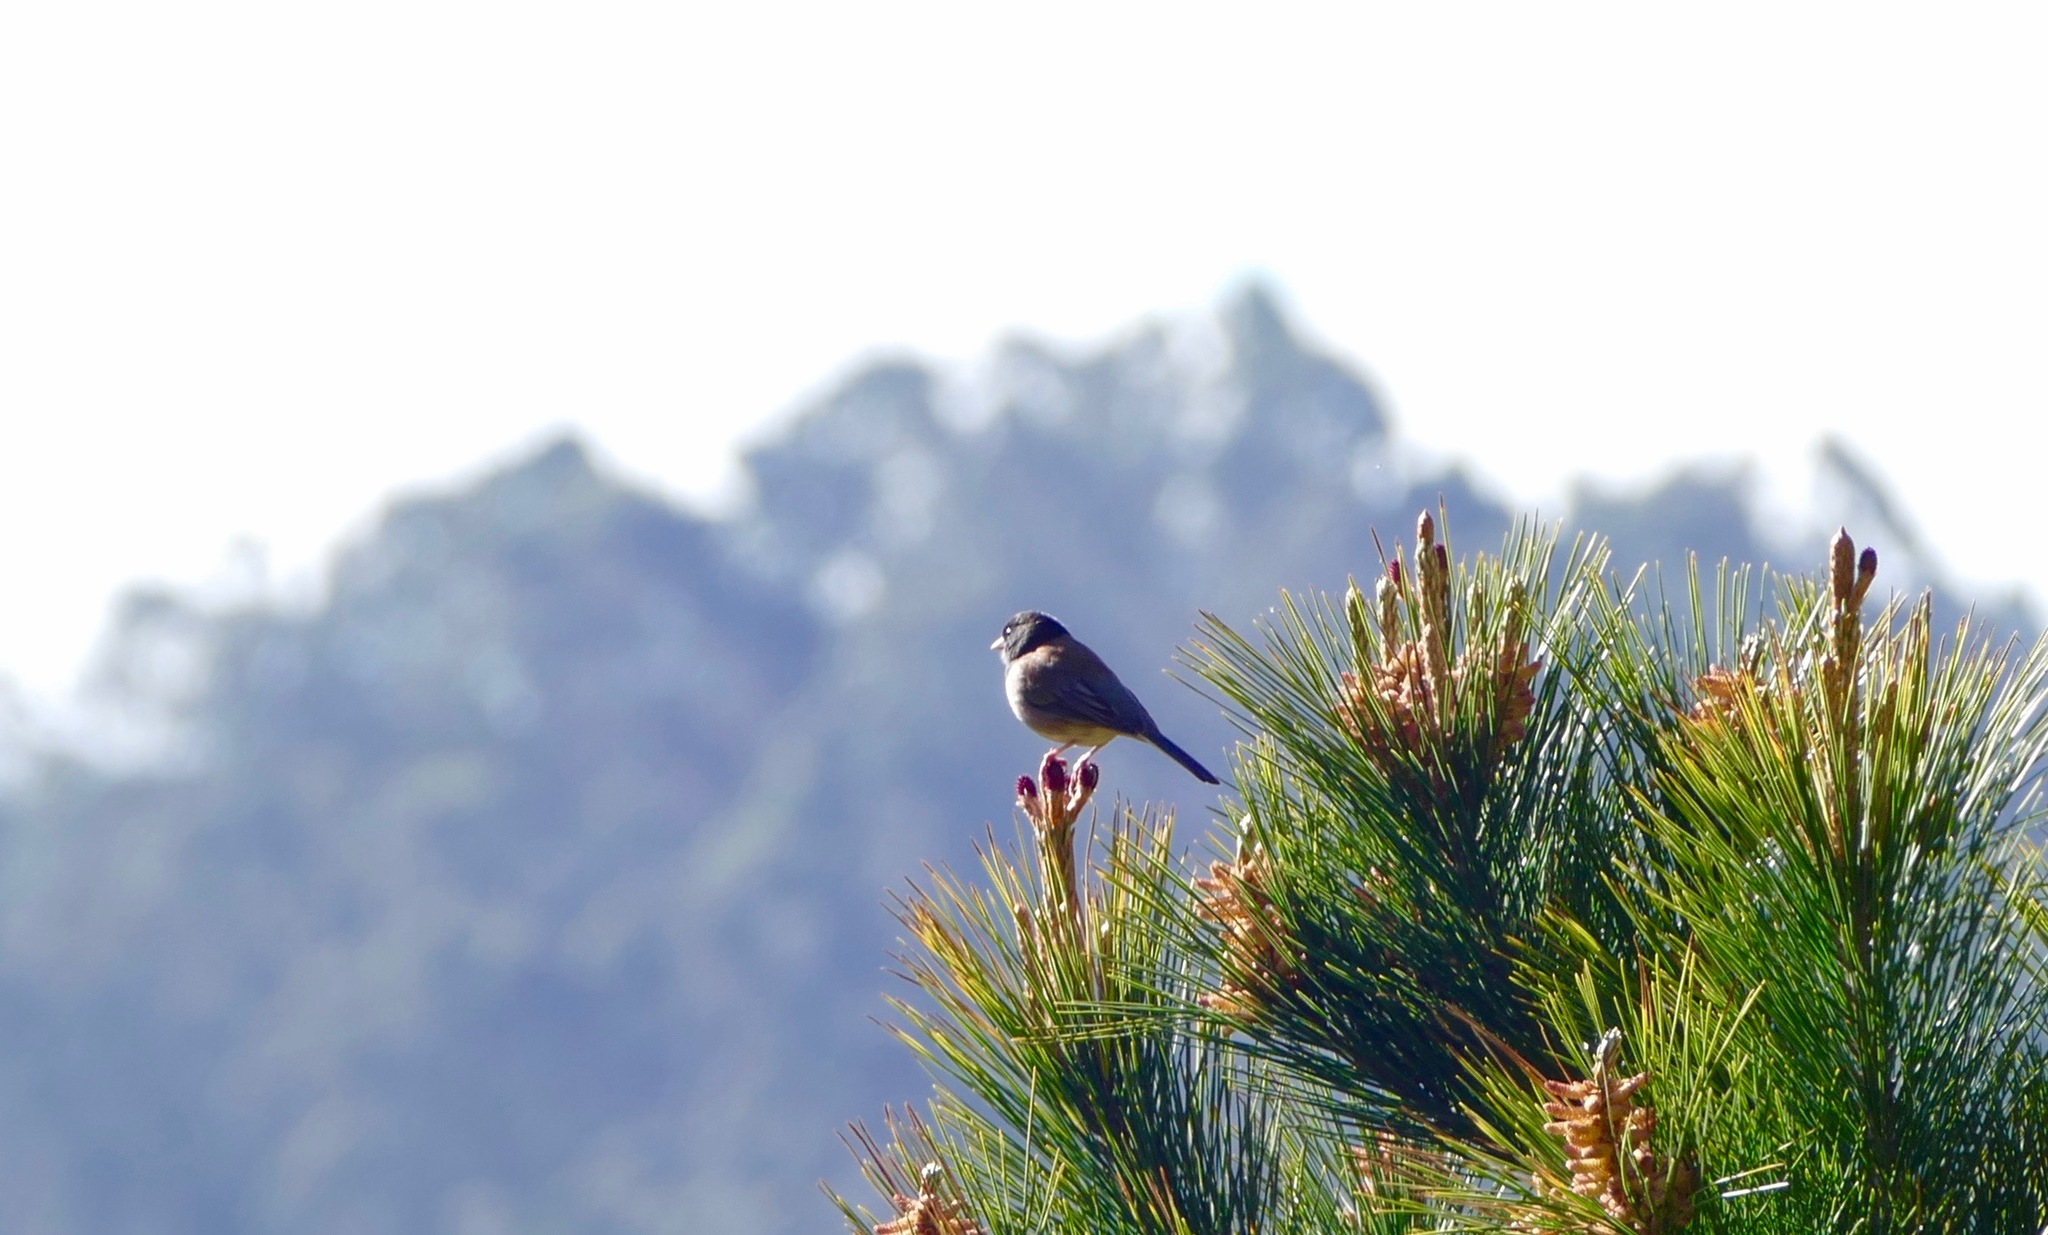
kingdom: Animalia
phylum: Chordata
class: Aves
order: Passeriformes
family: Passerellidae
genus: Junco
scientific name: Junco hyemalis
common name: Dark-eyed junco
